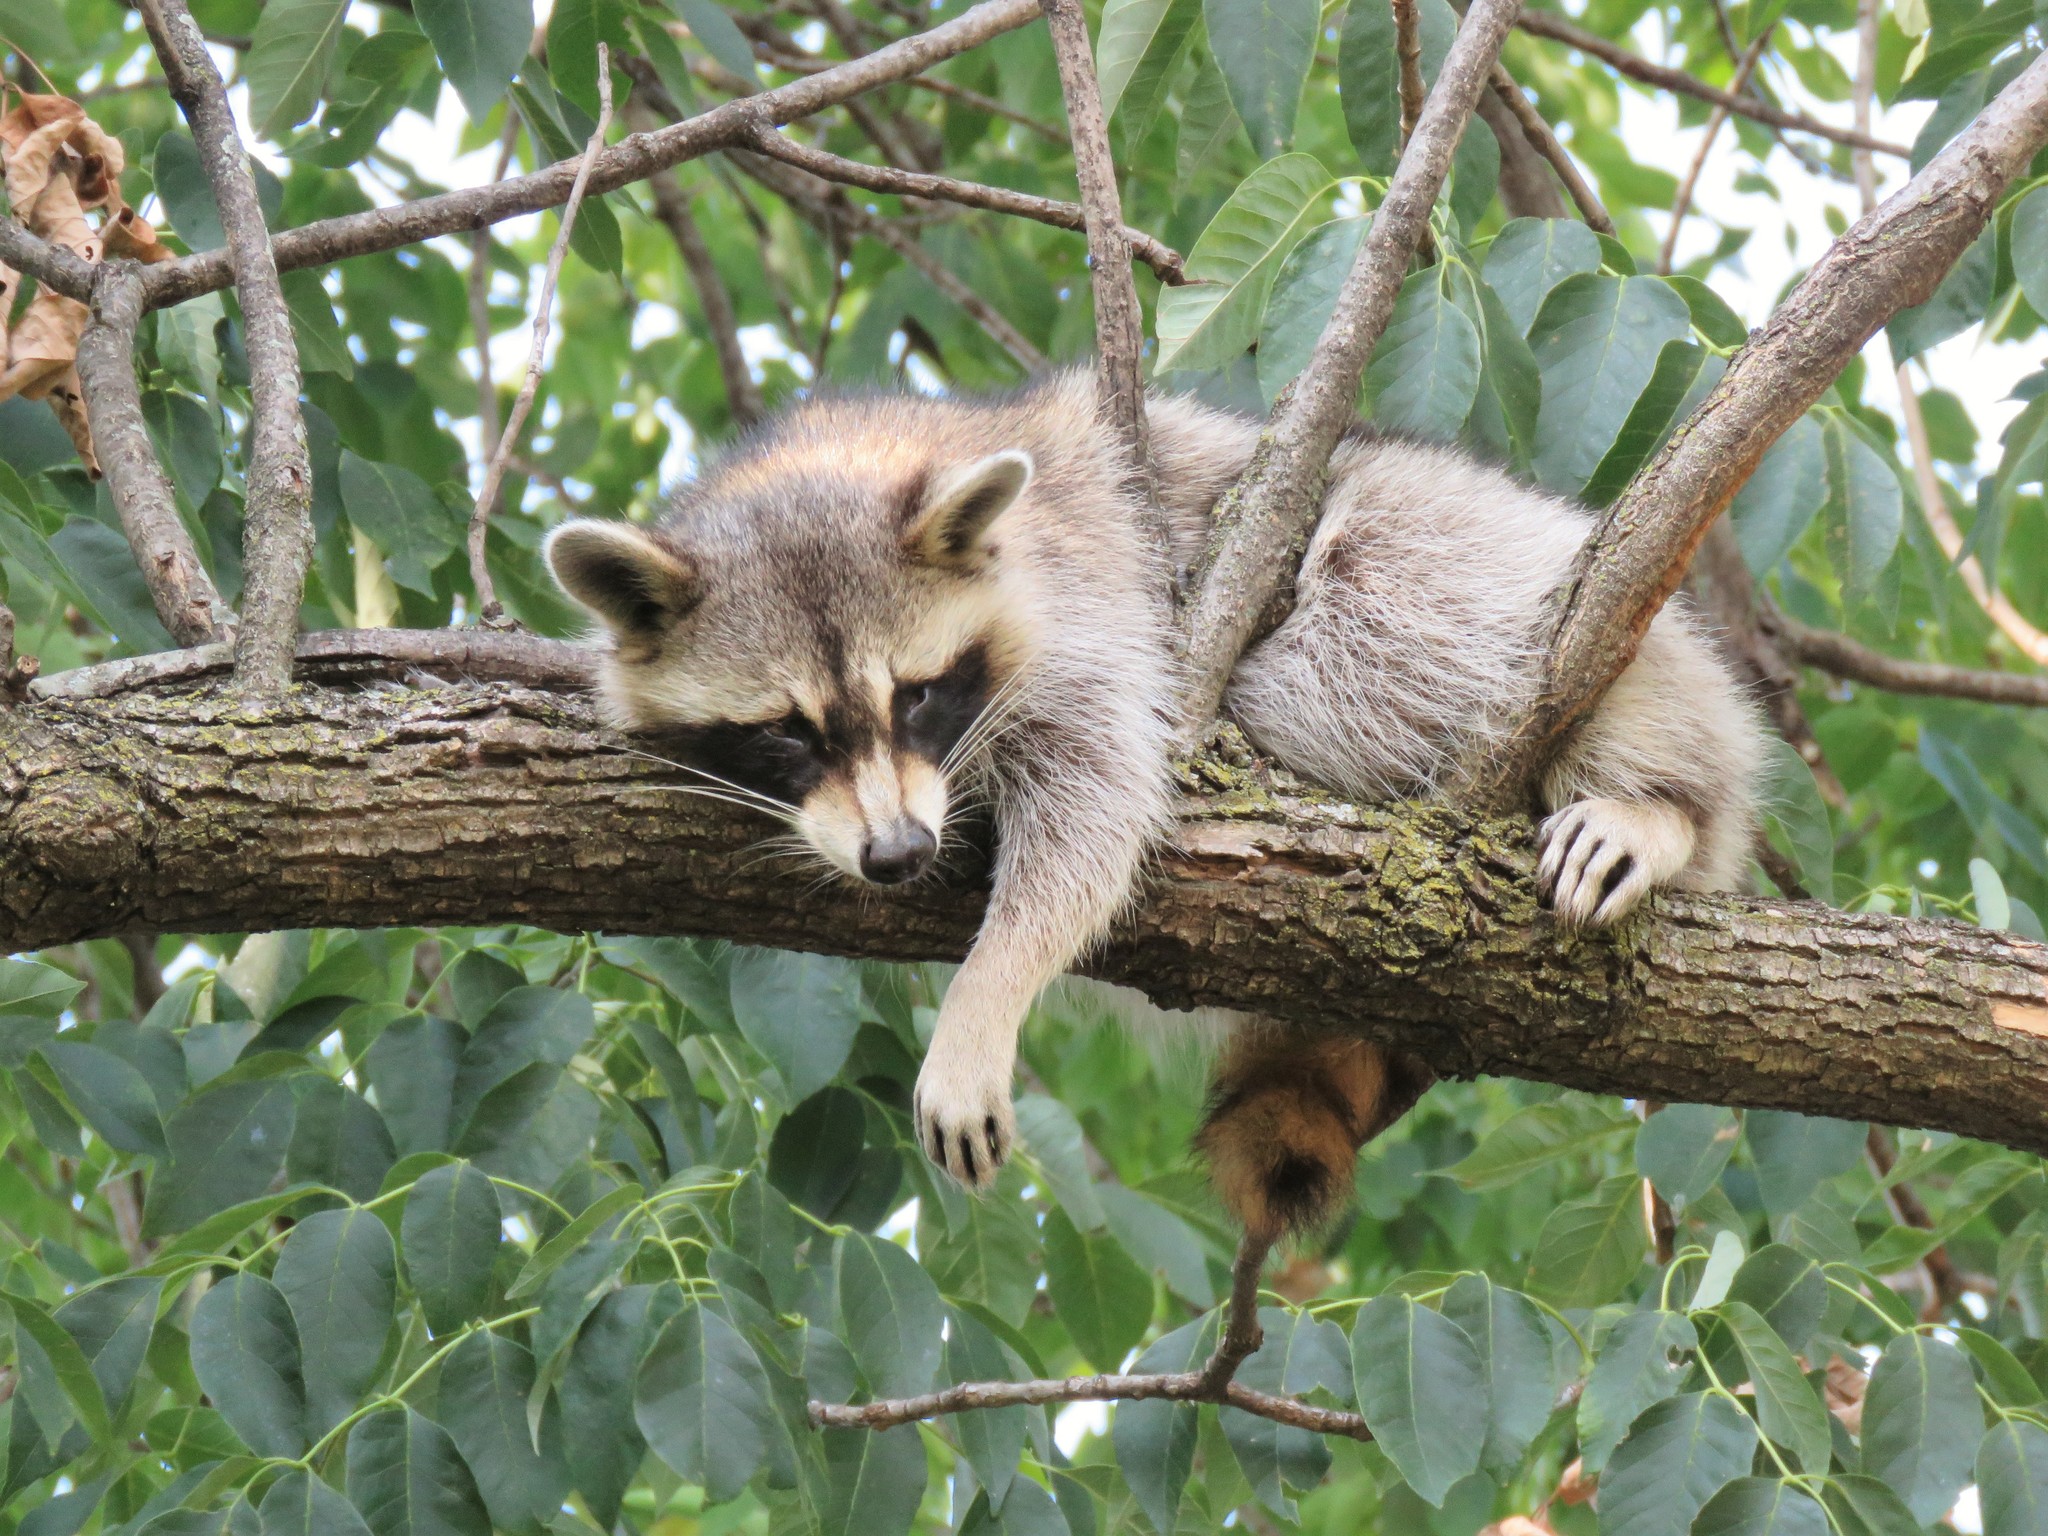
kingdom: Animalia
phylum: Chordata
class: Mammalia
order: Carnivora
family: Procyonidae
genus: Procyon
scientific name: Procyon lotor
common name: Raccoon
